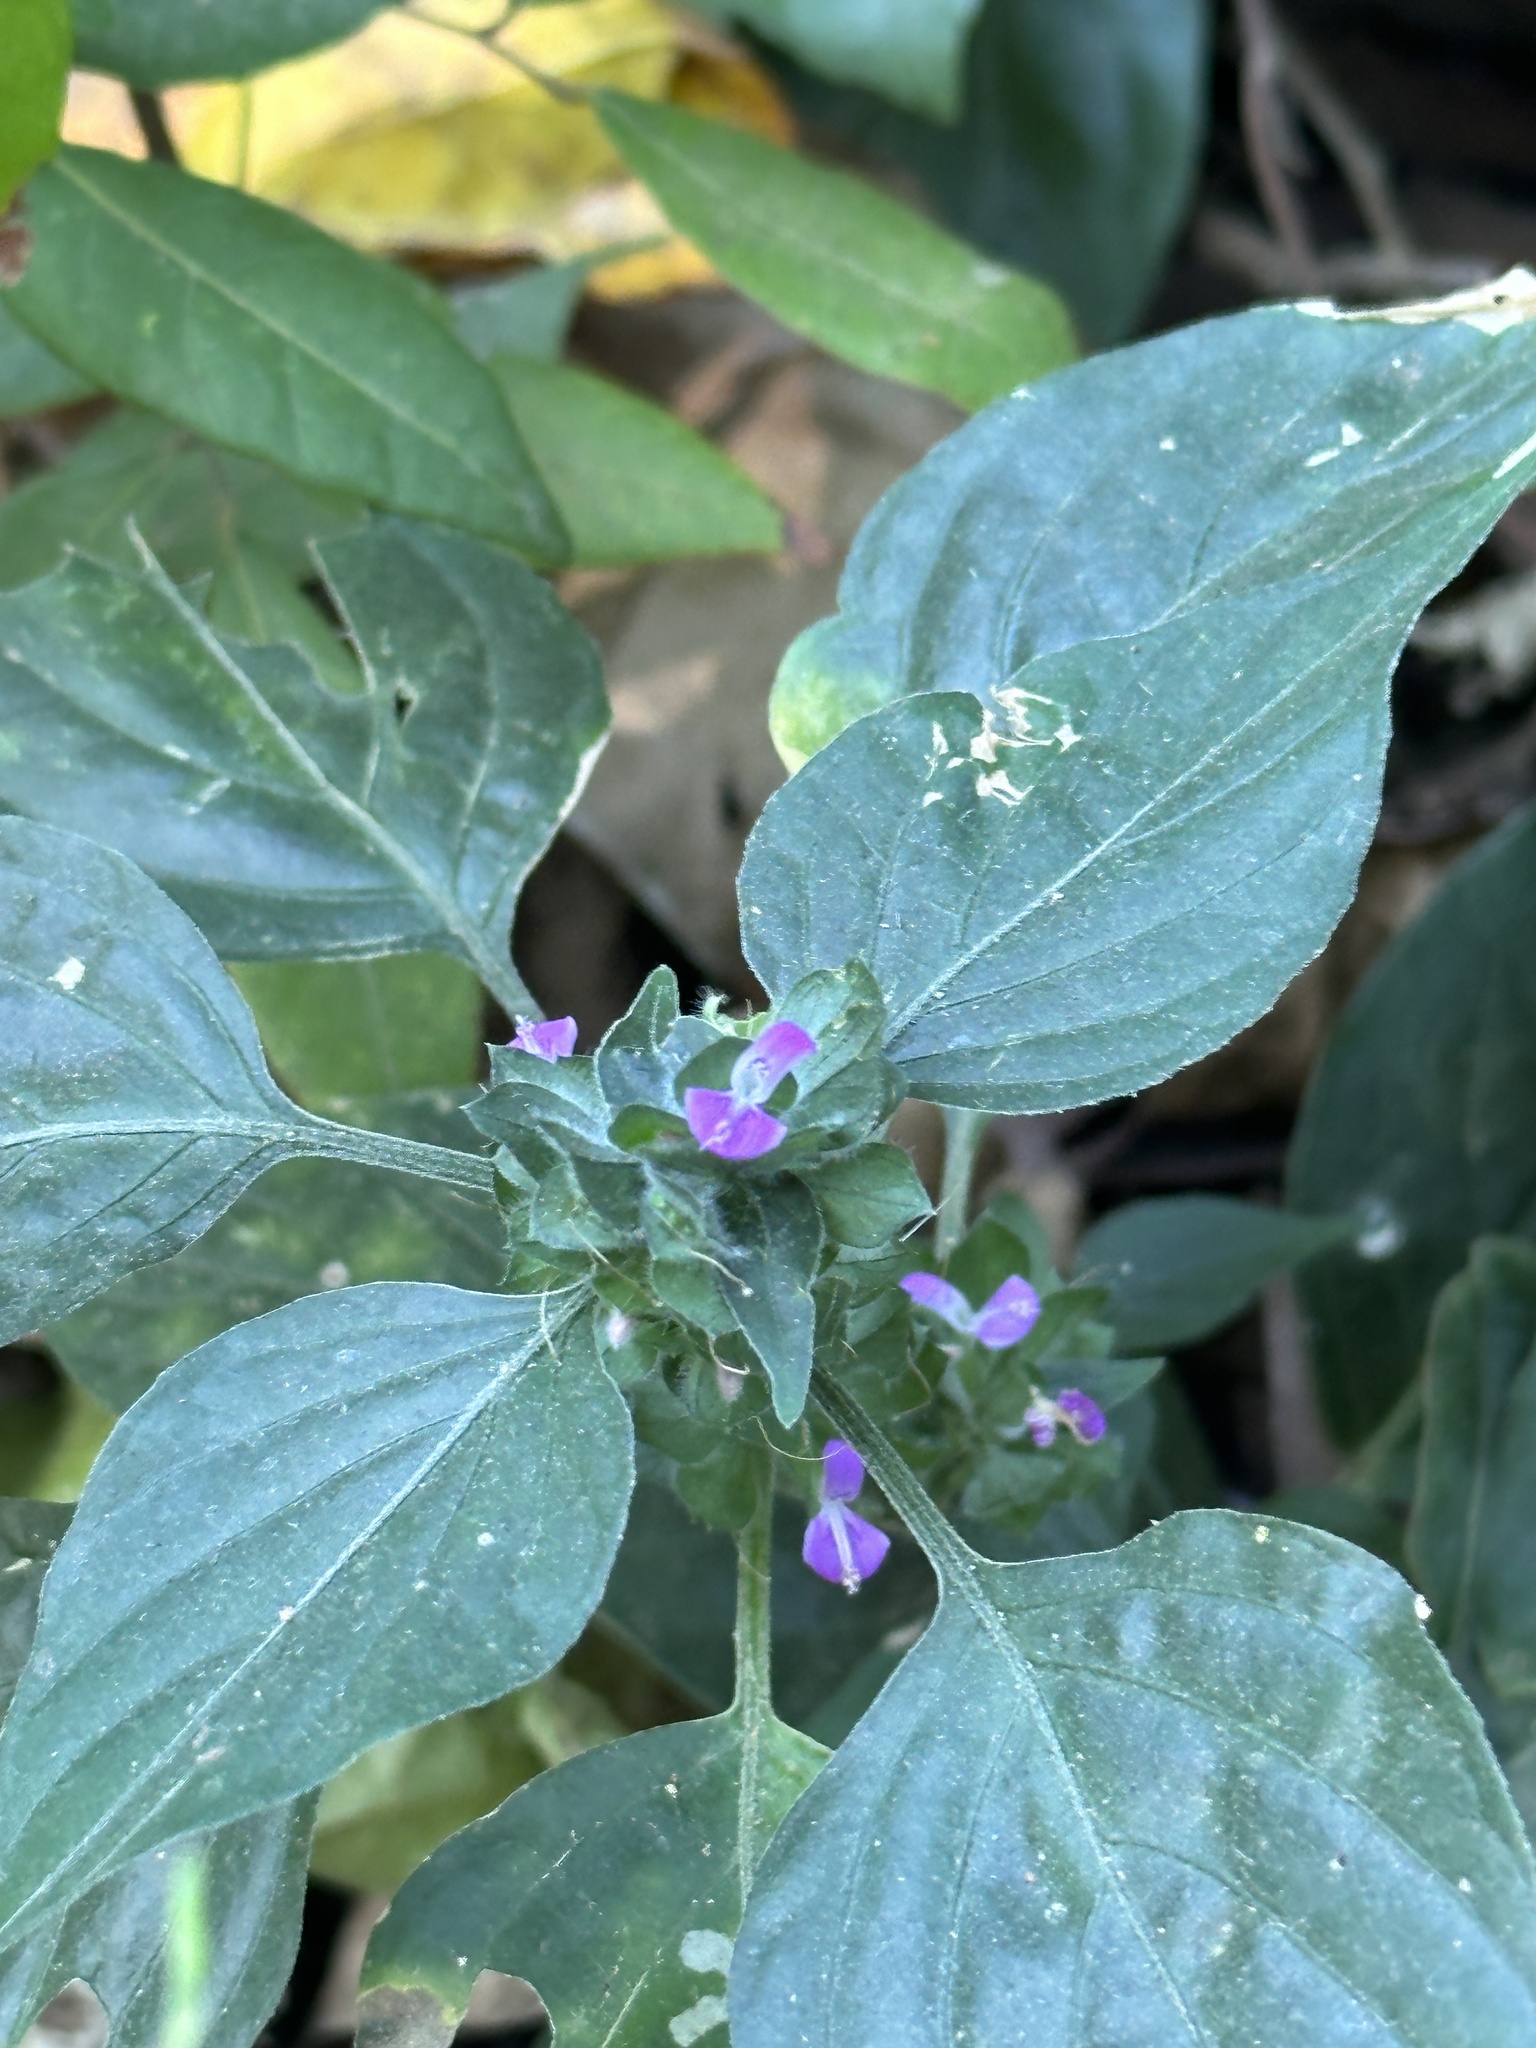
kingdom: Plantae
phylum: Tracheophyta
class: Magnoliopsida
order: Lamiales
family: Acanthaceae
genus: Dicliptera
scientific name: Dicliptera chinensis
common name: Chinese foldwing
